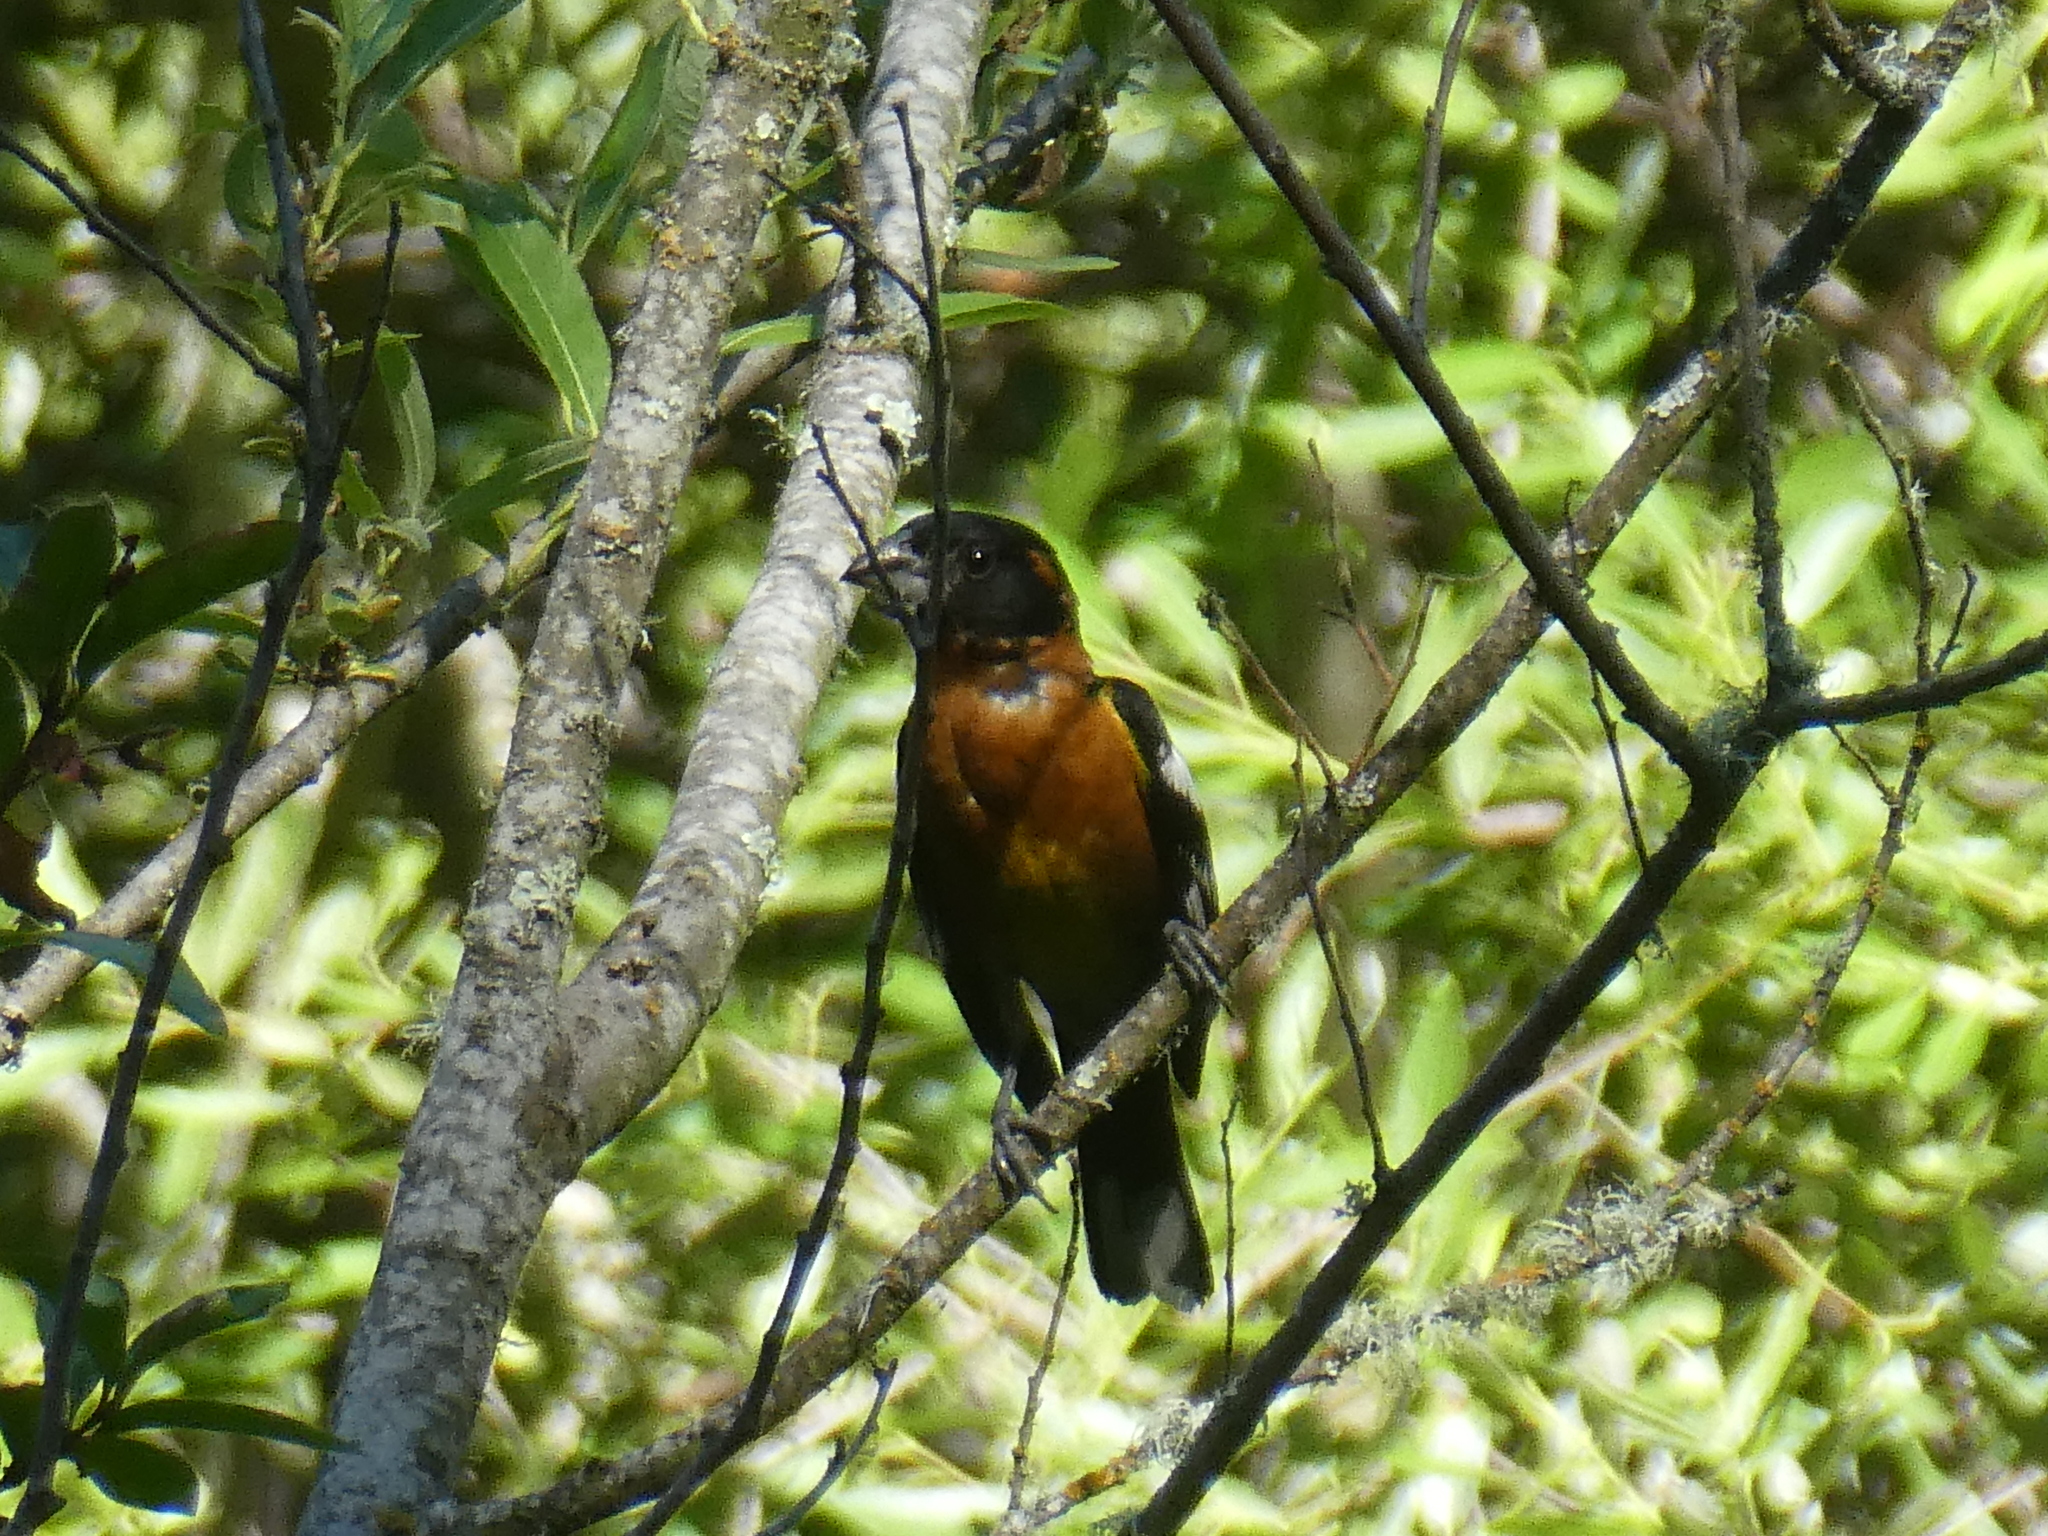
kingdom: Animalia
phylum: Chordata
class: Aves
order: Passeriformes
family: Cardinalidae
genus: Pheucticus
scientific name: Pheucticus melanocephalus
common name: Black-headed grosbeak
